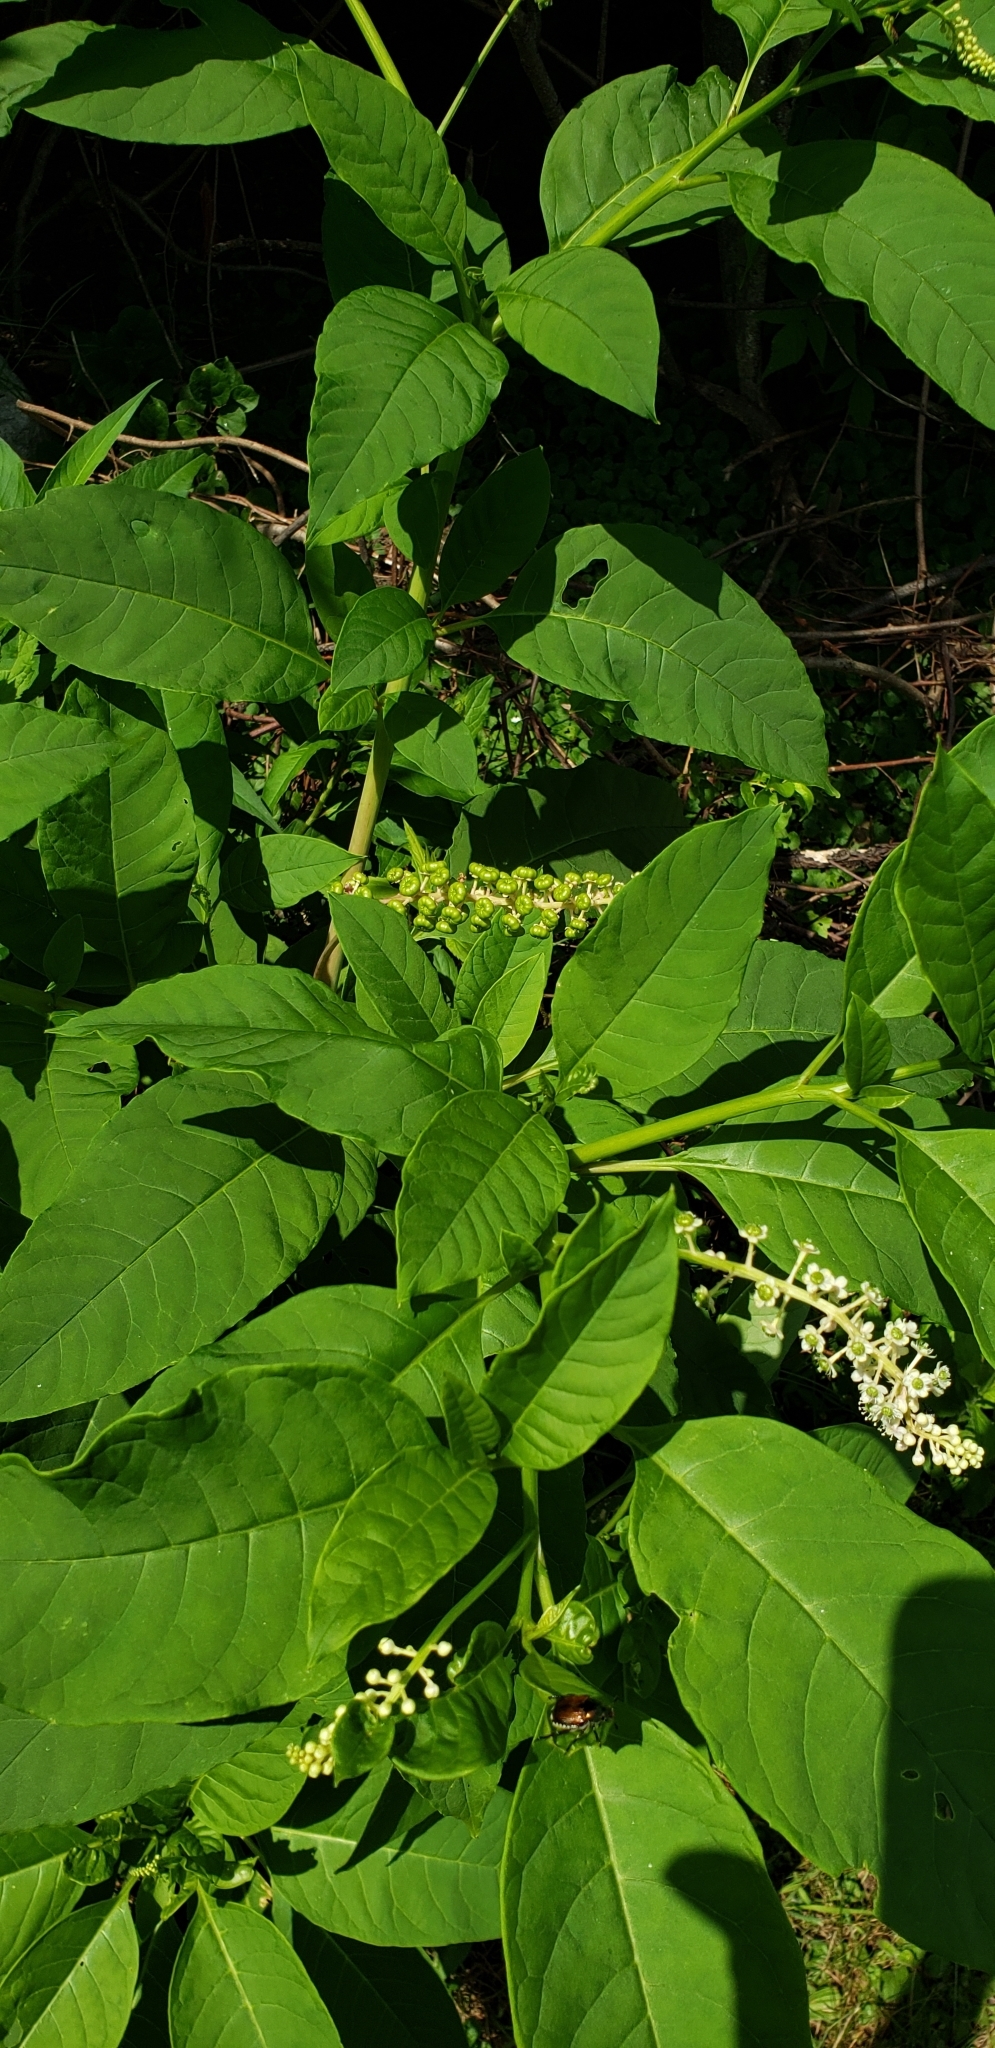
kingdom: Plantae
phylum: Tracheophyta
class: Magnoliopsida
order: Caryophyllales
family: Phytolaccaceae
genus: Phytolacca
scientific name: Phytolacca americana
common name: American pokeweed
